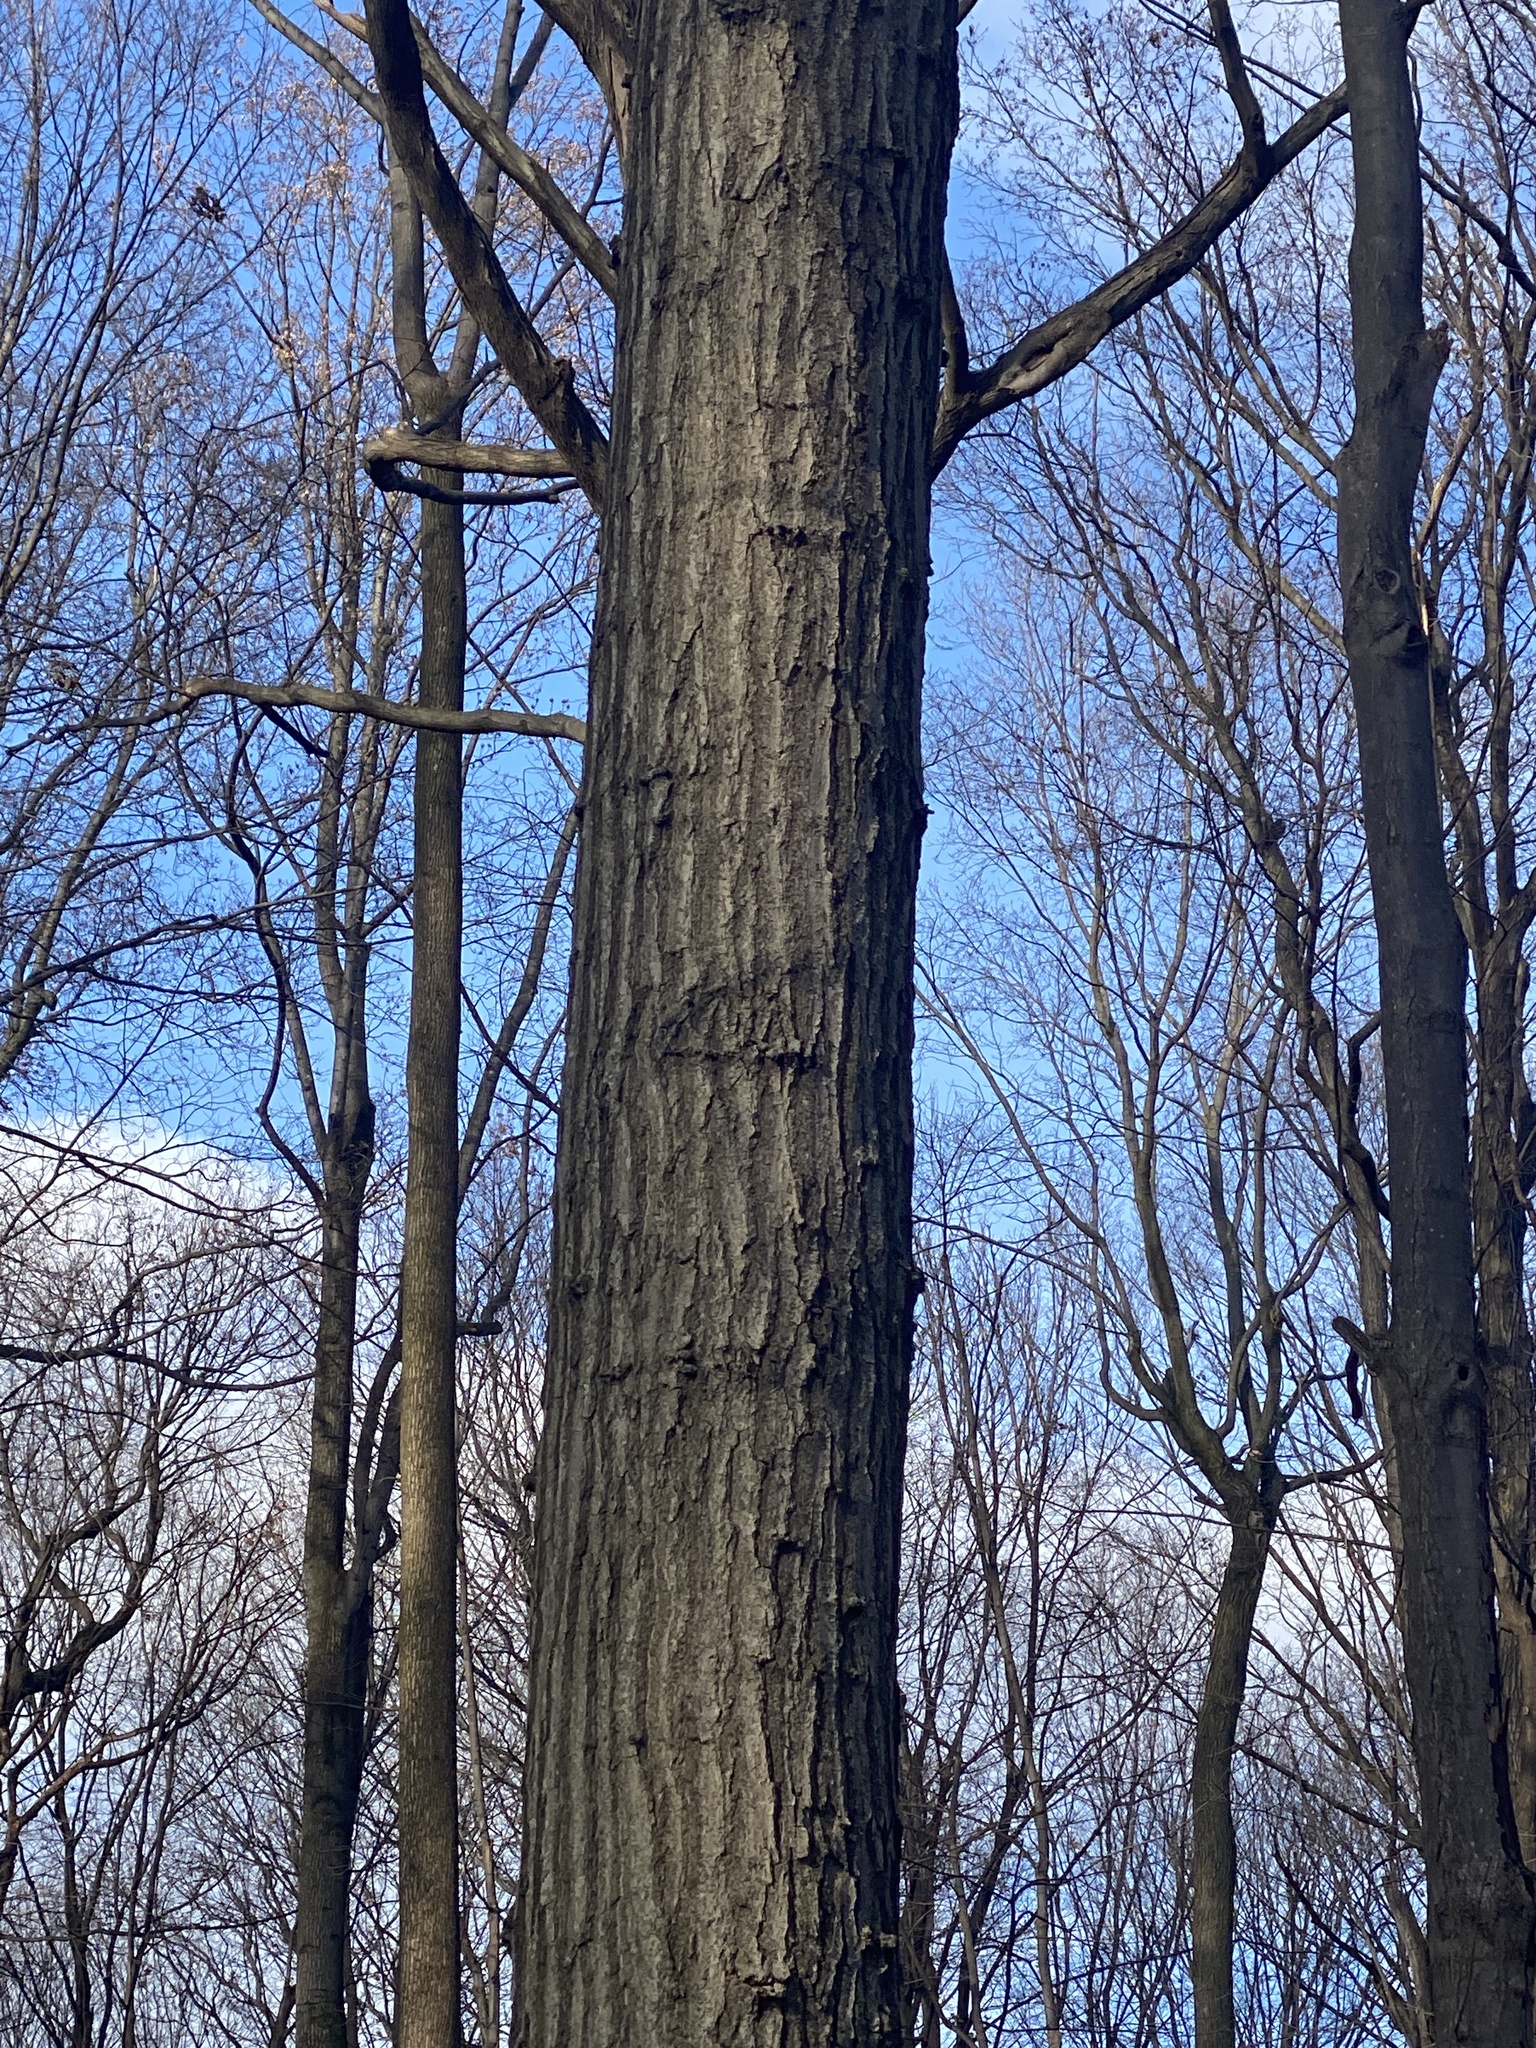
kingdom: Plantae
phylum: Tracheophyta
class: Magnoliopsida
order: Fagales
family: Fagaceae
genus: Quercus
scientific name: Quercus rubra
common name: Red oak
